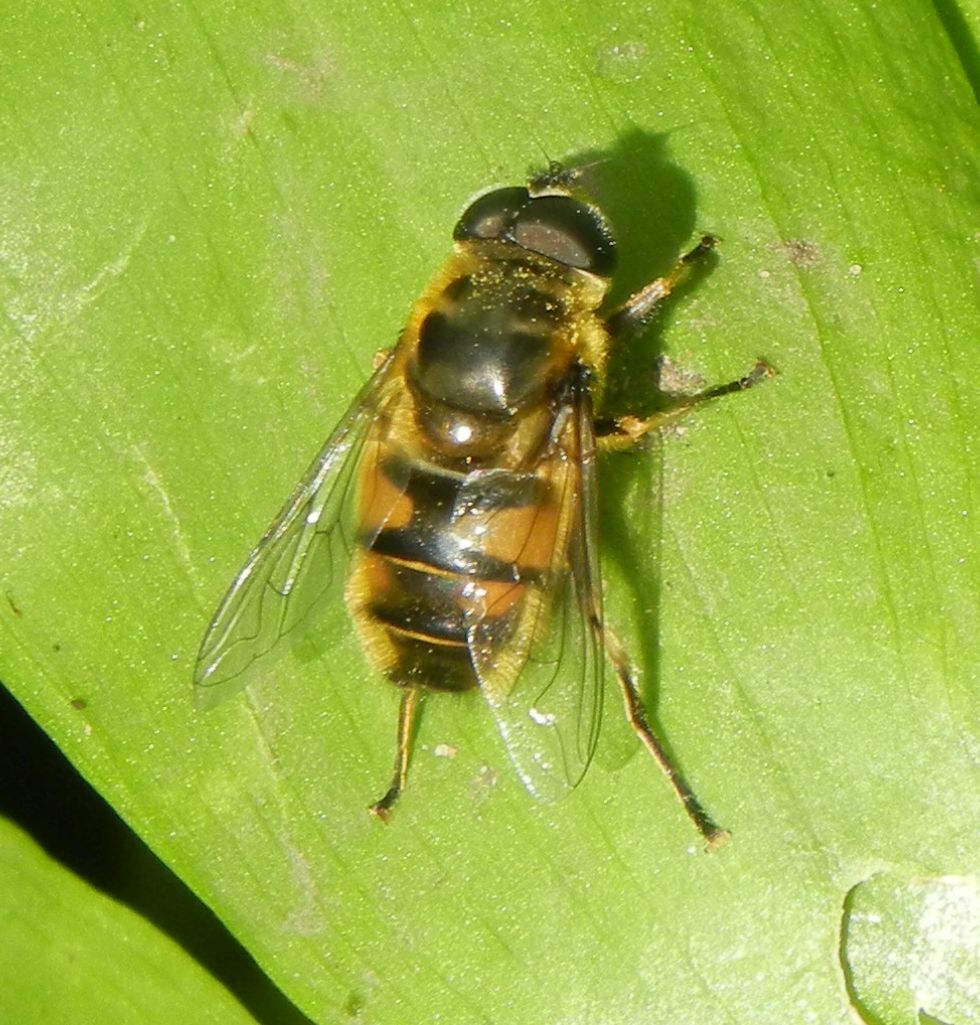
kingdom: Animalia
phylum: Arthropoda
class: Insecta
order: Diptera
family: Syrphidae
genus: Myathropa
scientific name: Myathropa florea
